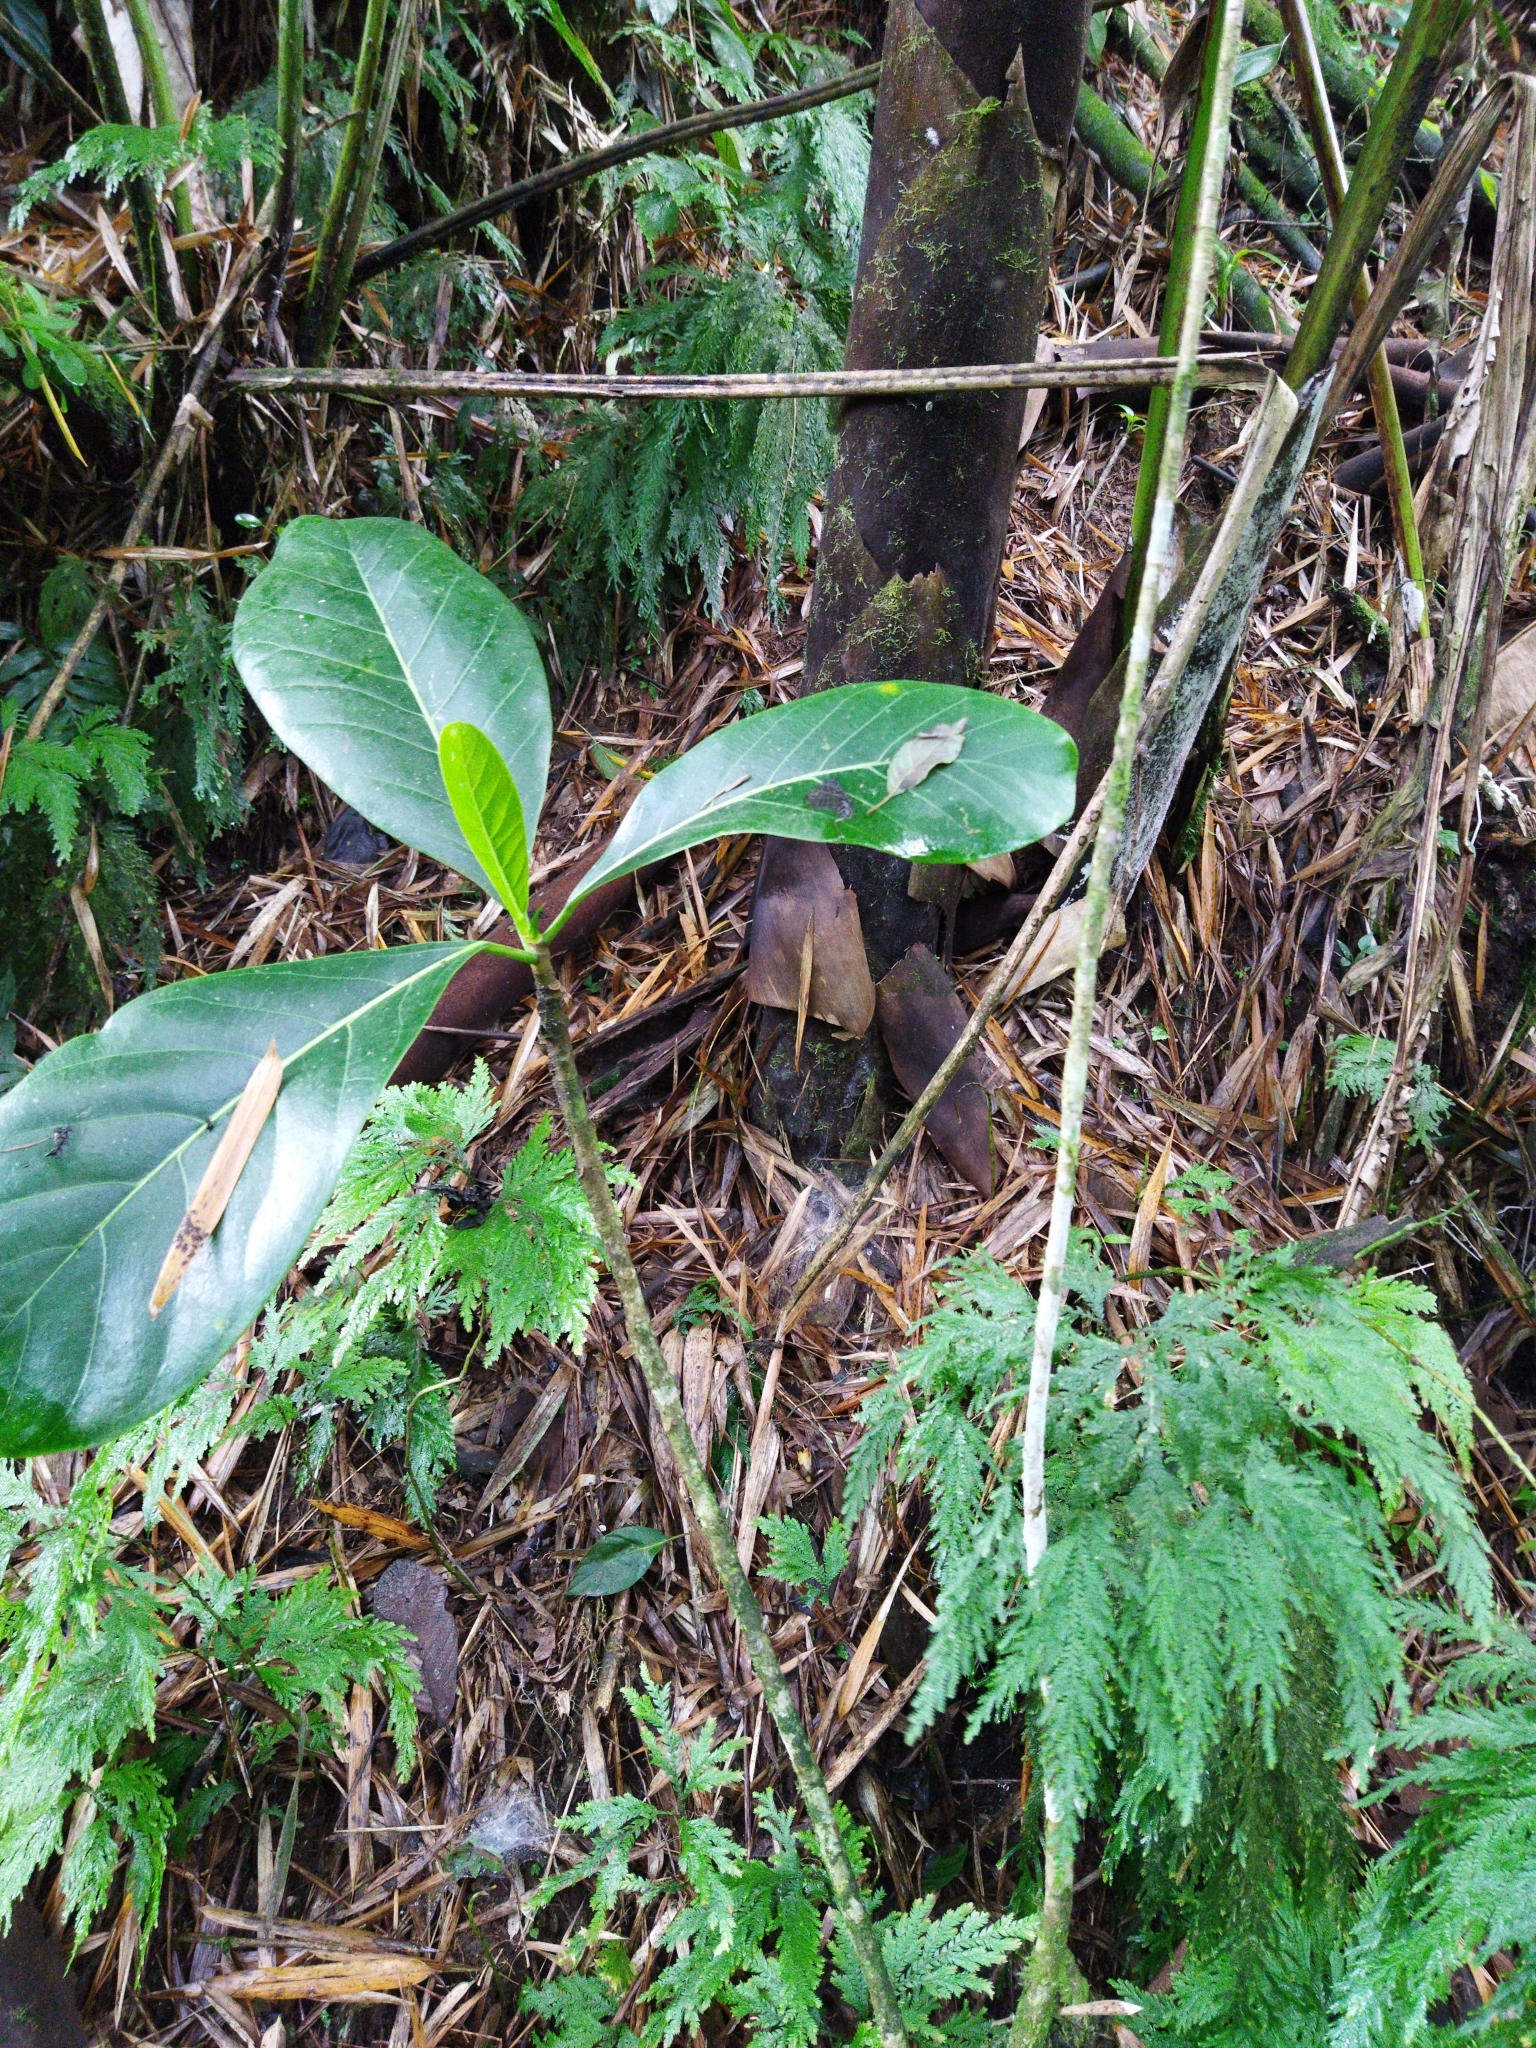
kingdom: Plantae
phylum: Tracheophyta
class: Magnoliopsida
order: Rosales
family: Moraceae
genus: Ficus
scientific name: Ficus obtusifolia
